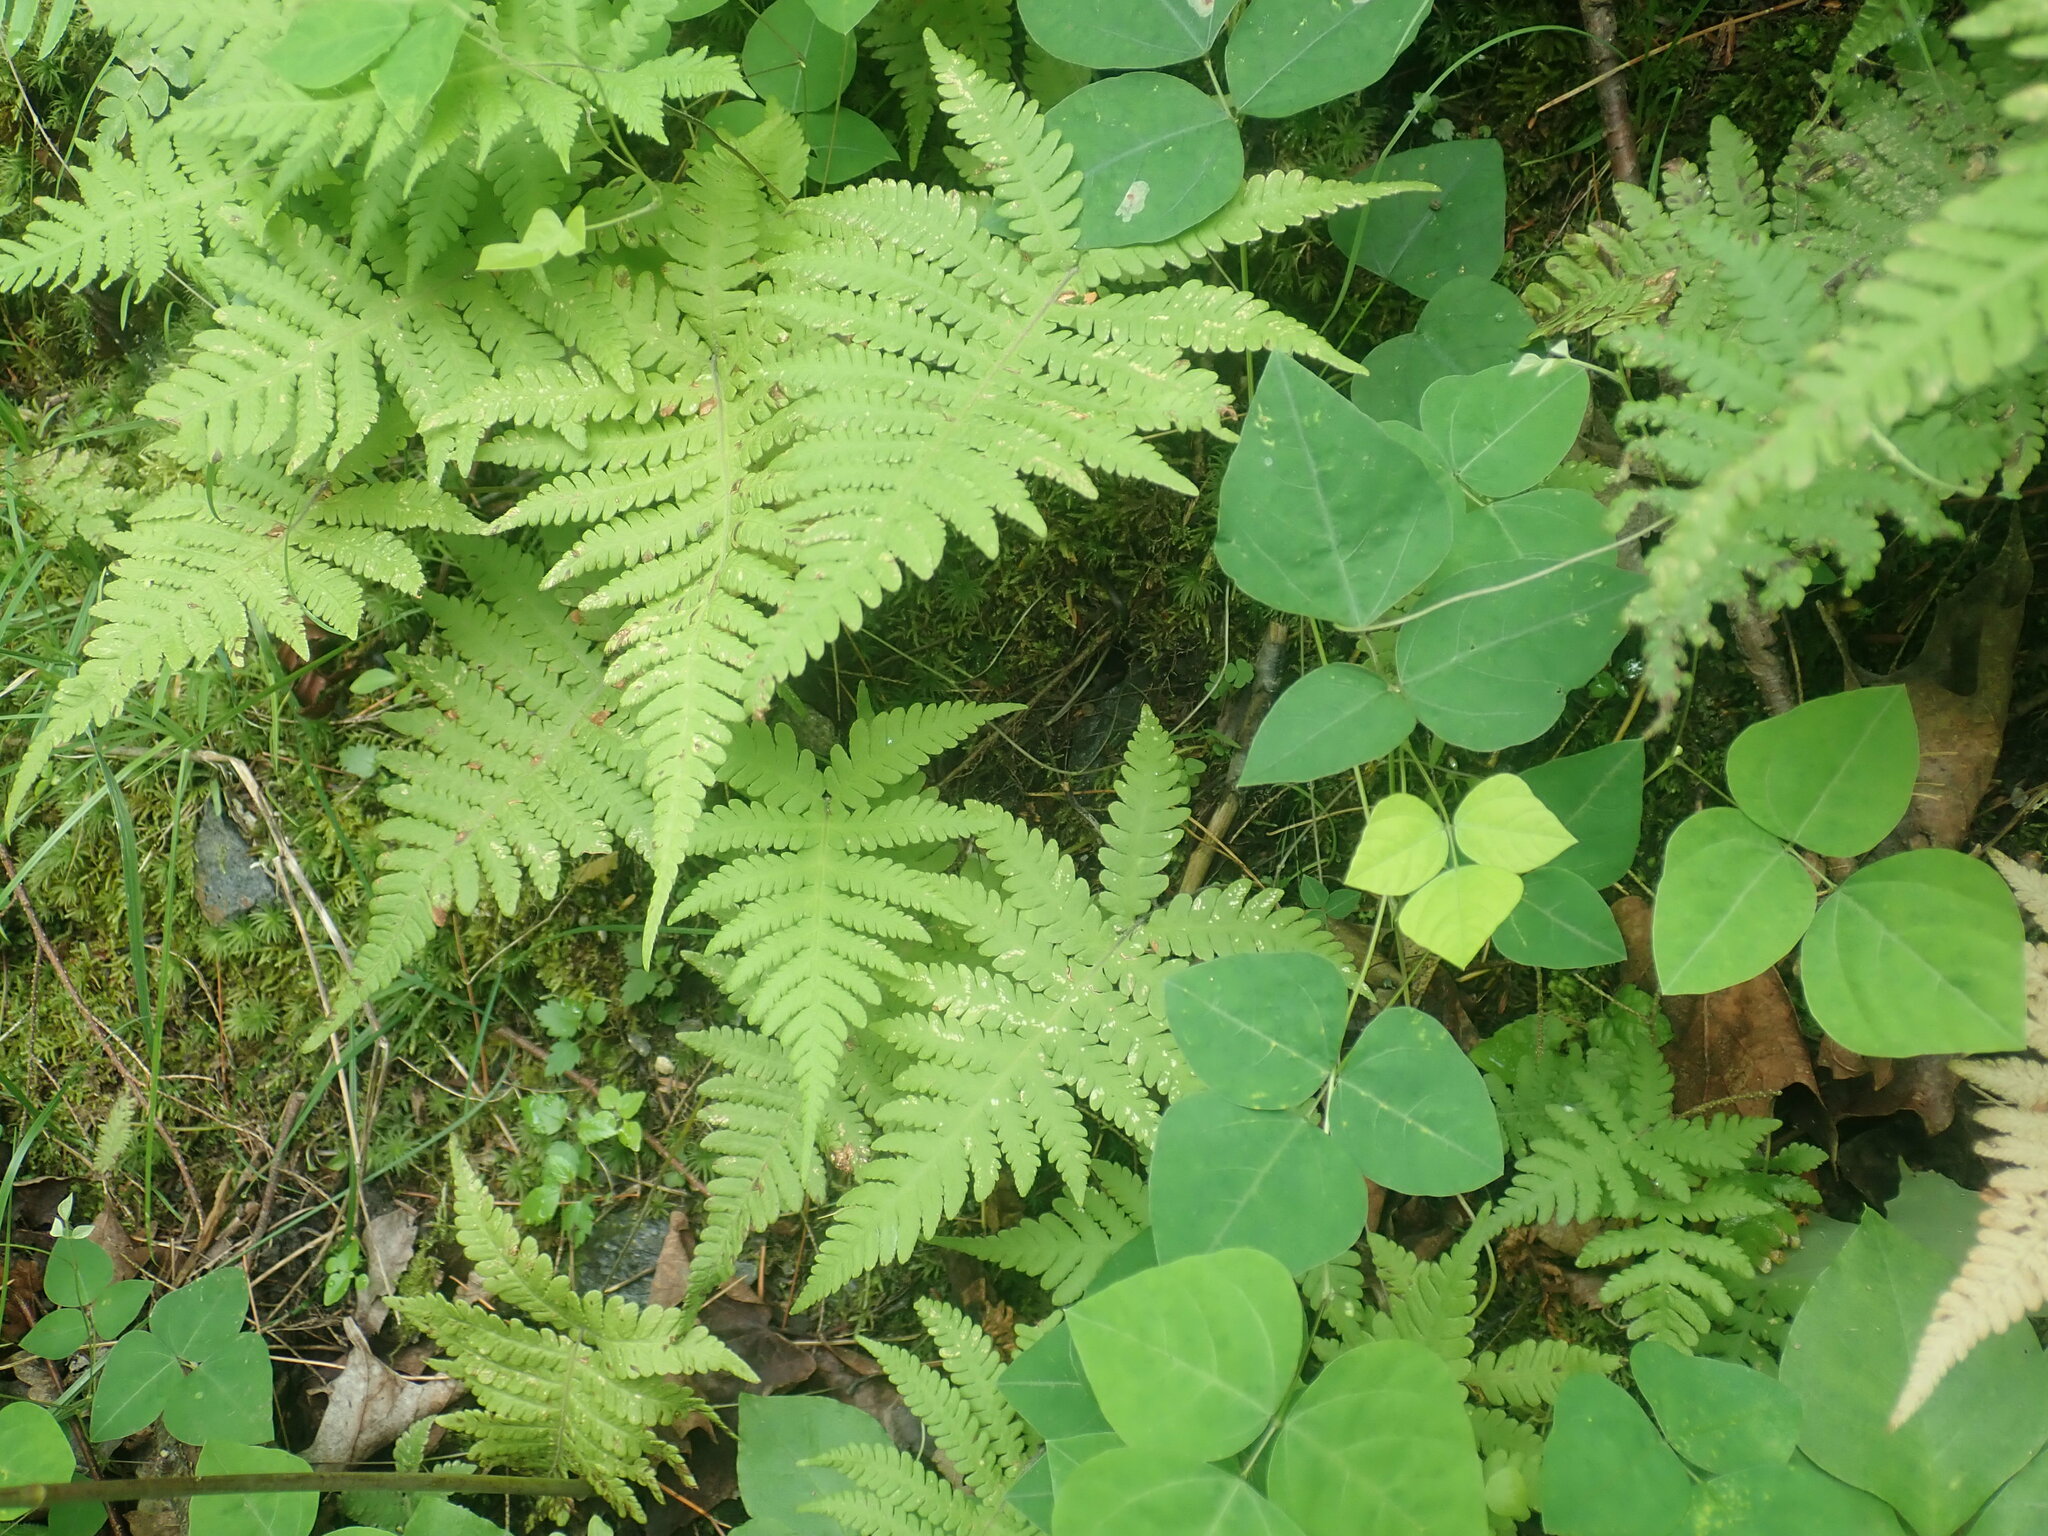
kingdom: Plantae
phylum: Tracheophyta
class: Polypodiopsida
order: Polypodiales
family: Thelypteridaceae
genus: Phegopteris
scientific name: Phegopteris connectilis
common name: Beech fern
